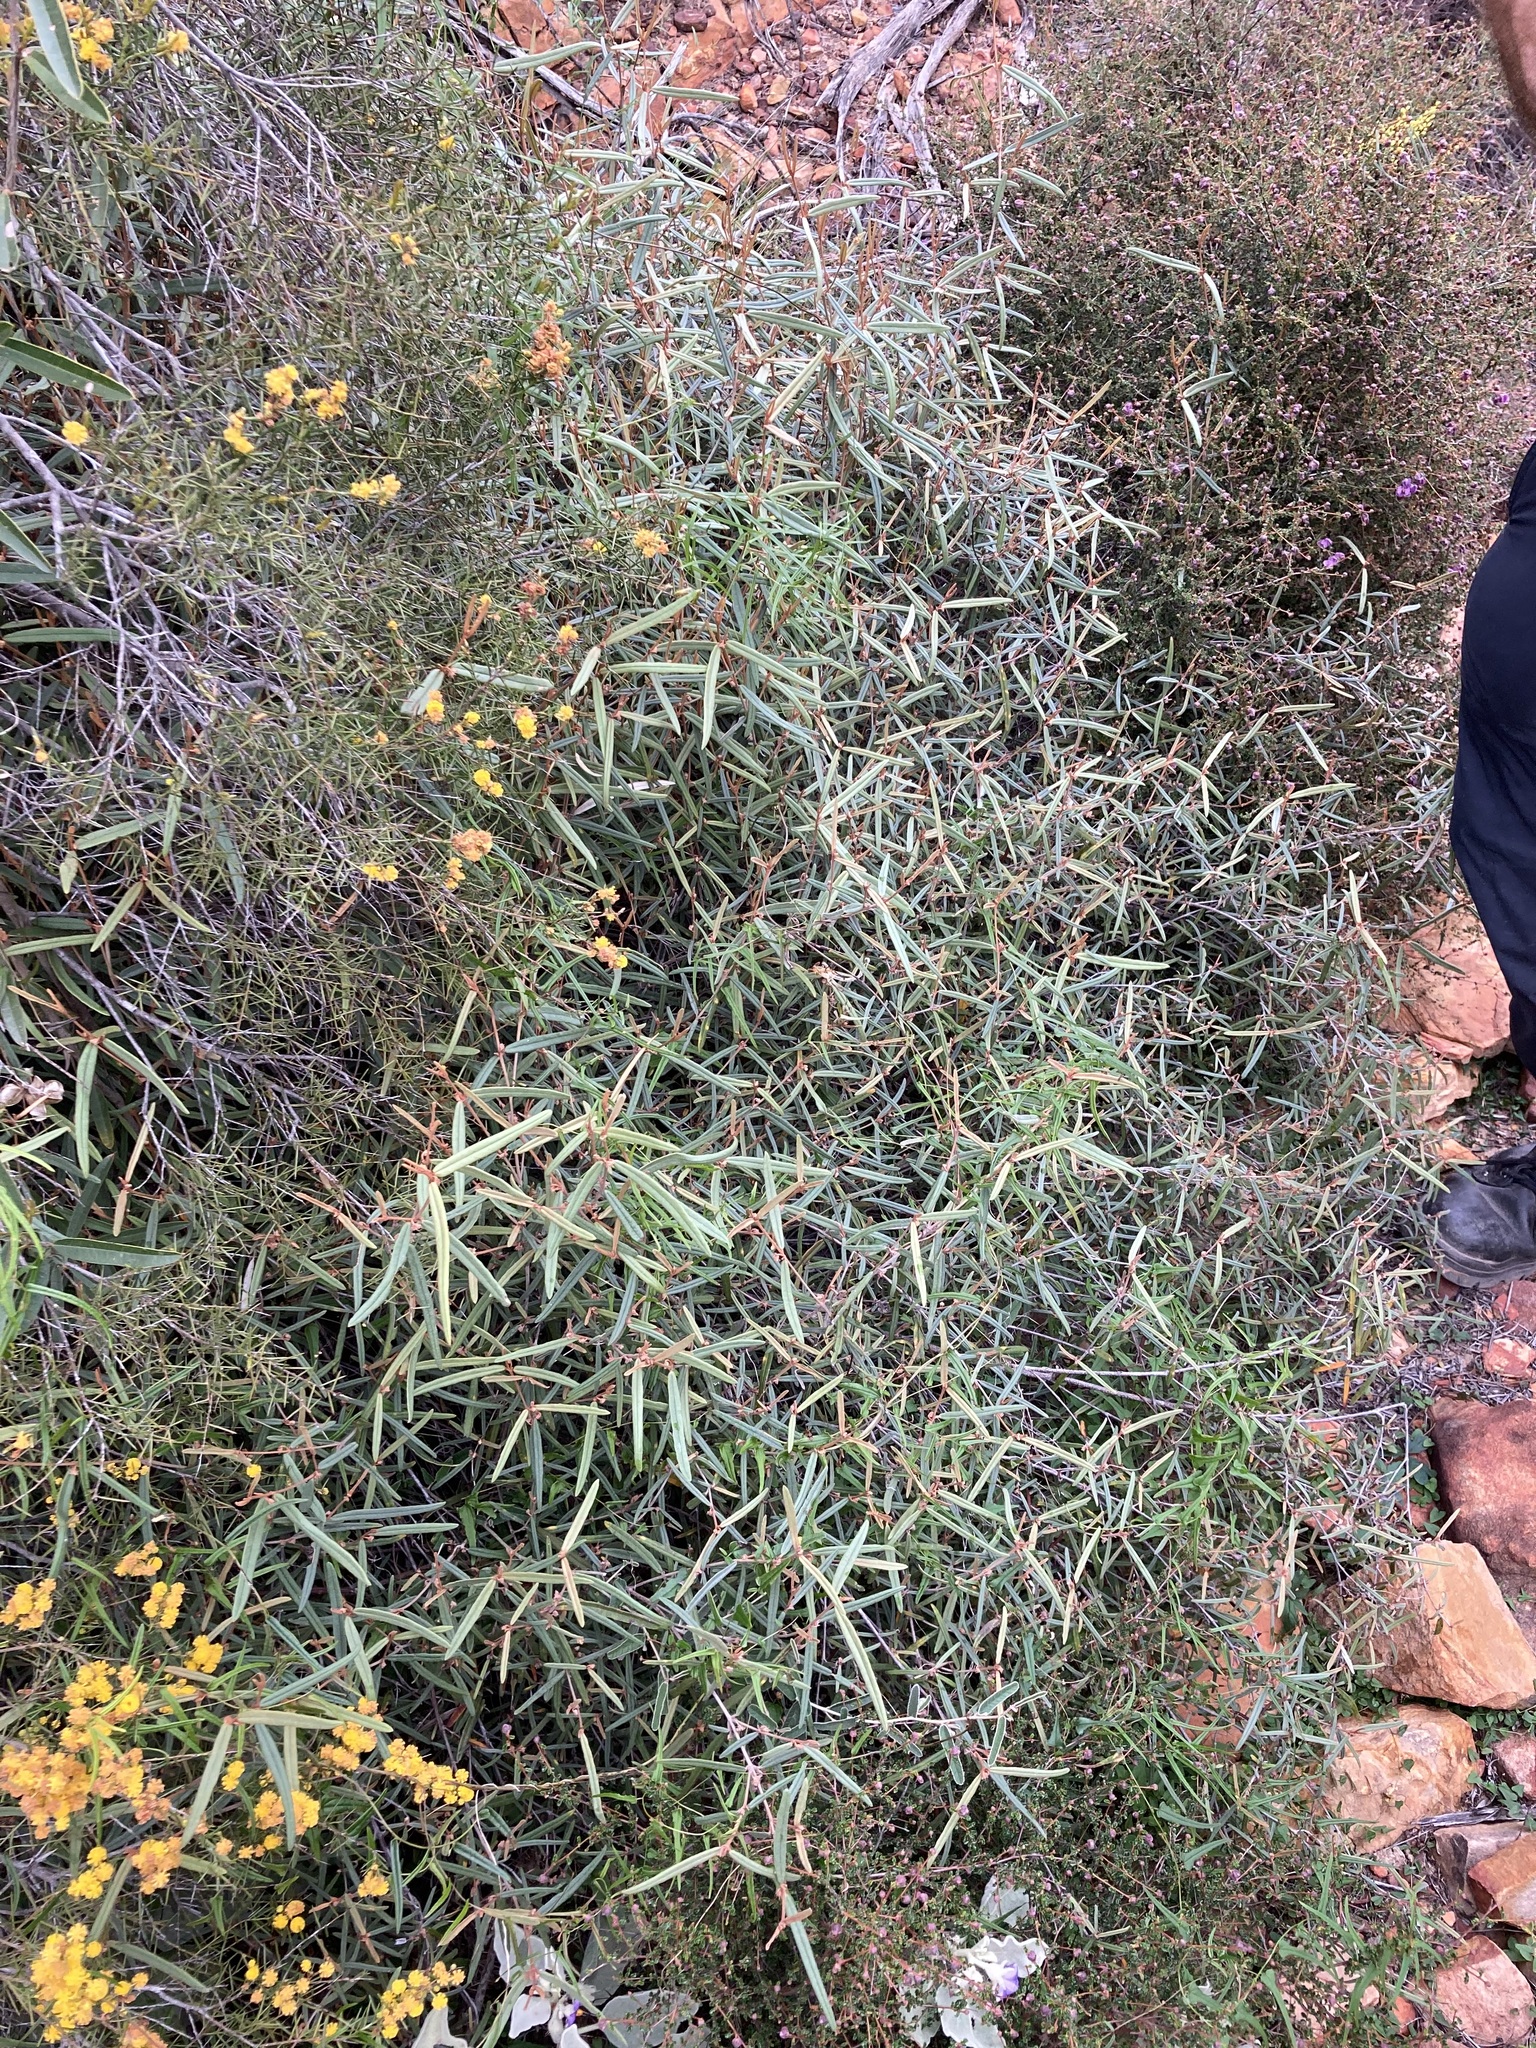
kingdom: Plantae
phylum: Tracheophyta
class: Magnoliopsida
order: Malvales
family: Malvaceae
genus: Lasiopetalum
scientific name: Lasiopetalum oppositifolium
